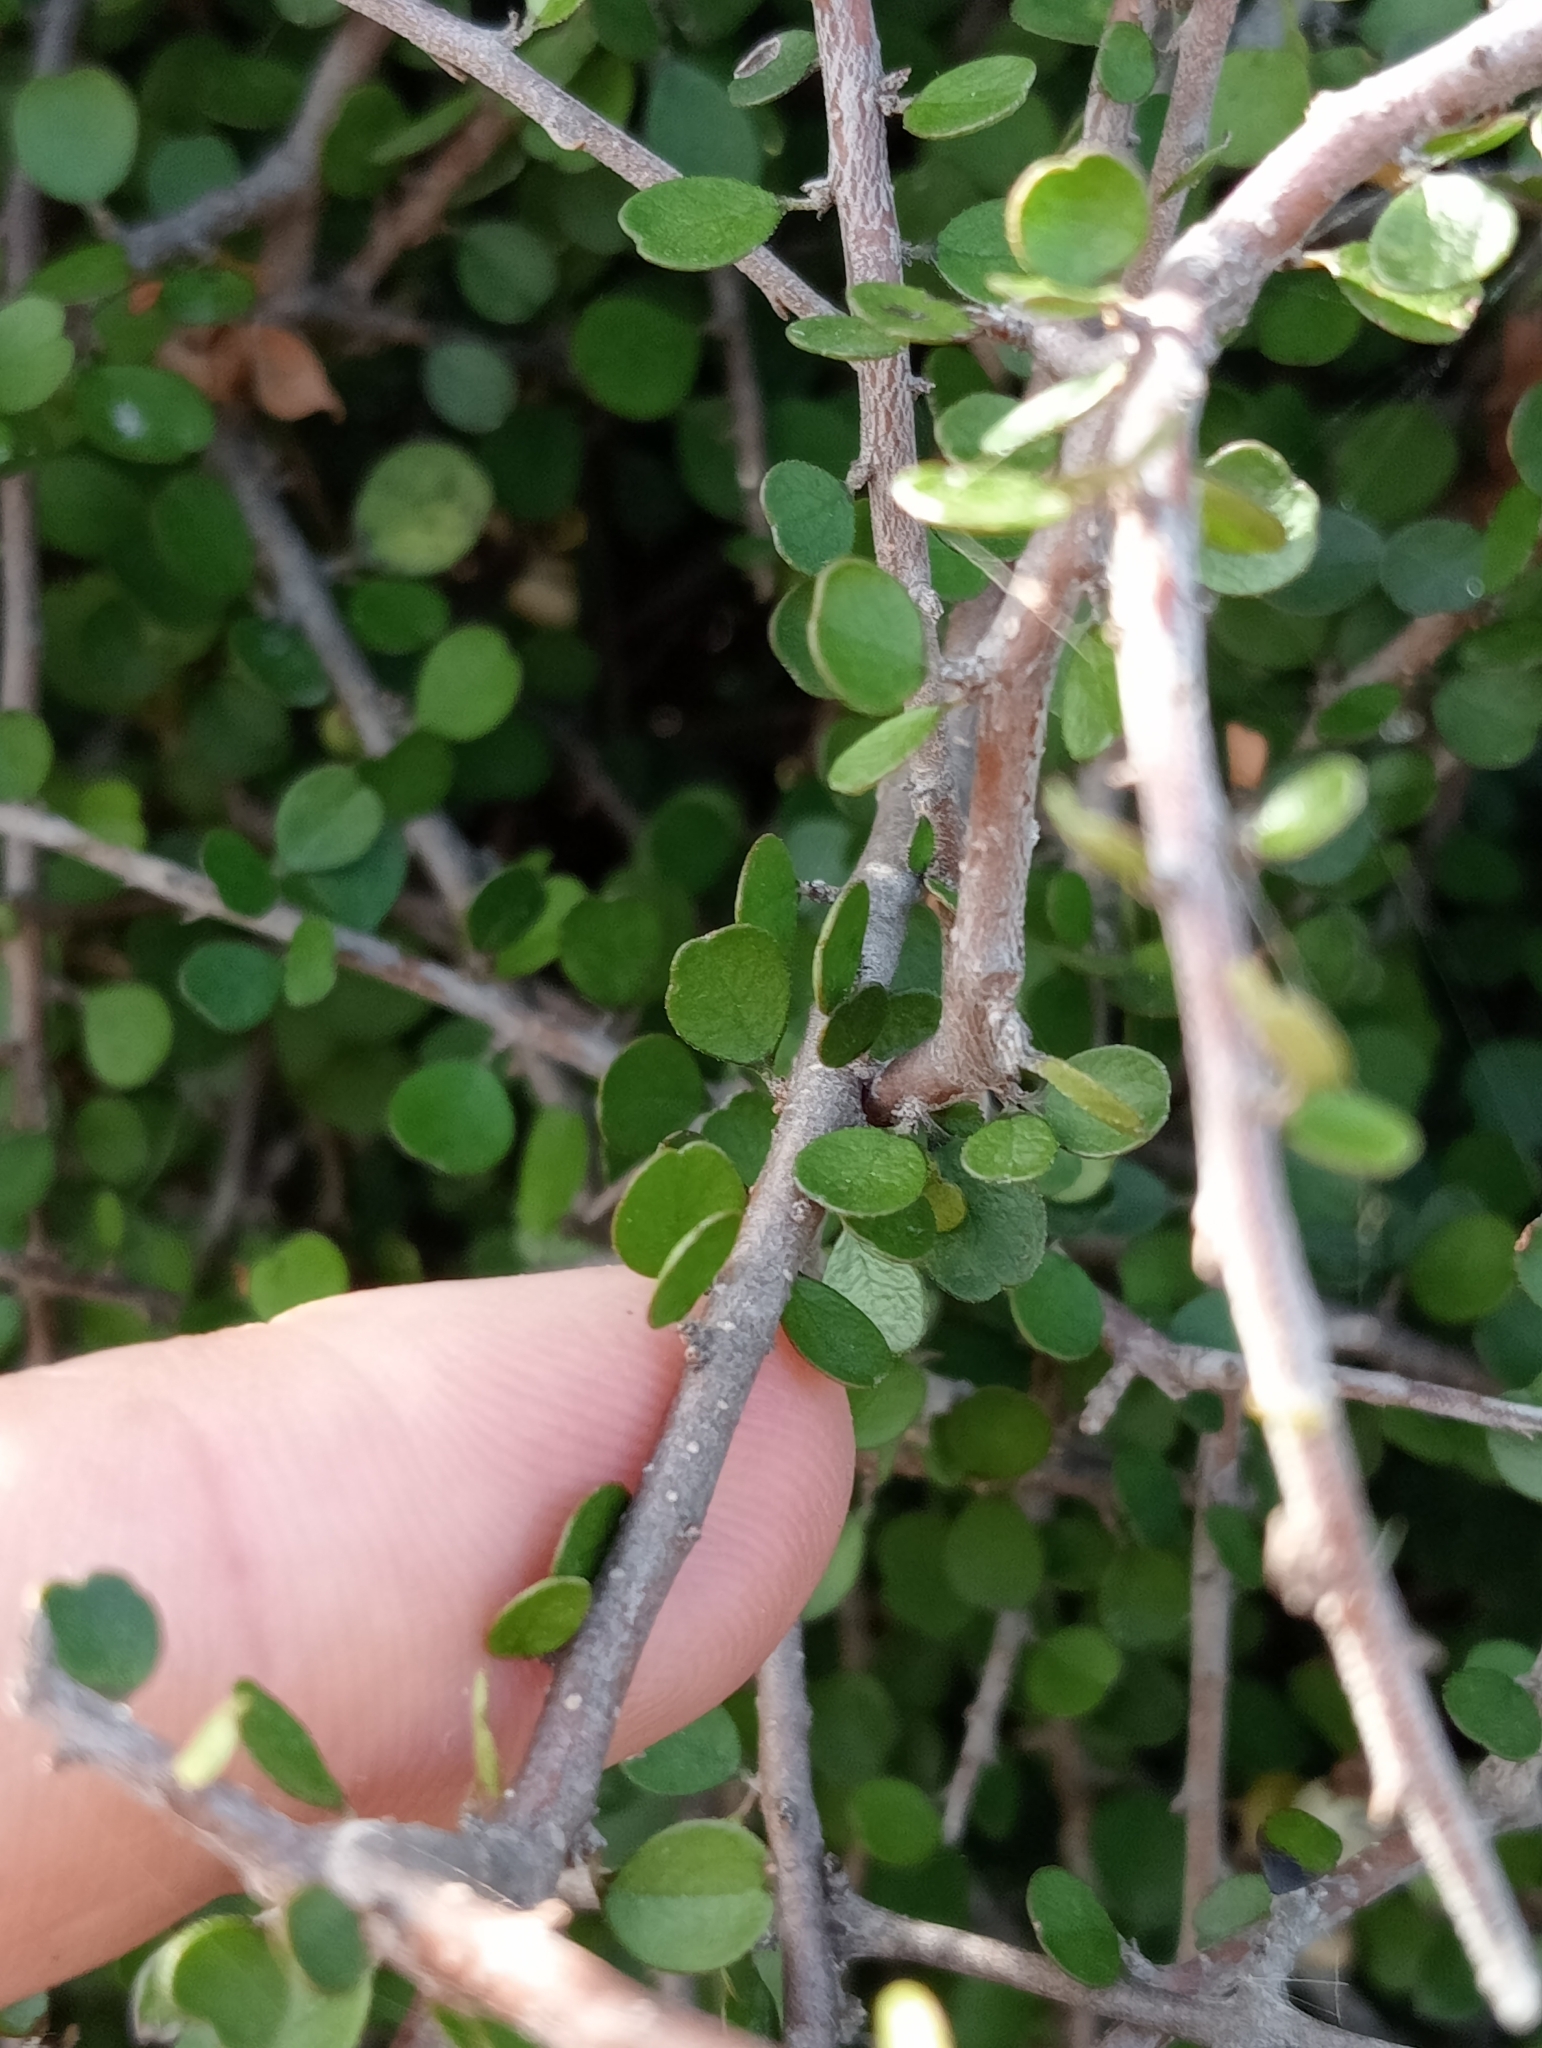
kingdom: Plantae
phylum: Tracheophyta
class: Magnoliopsida
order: Ericales
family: Primulaceae
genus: Myrsine
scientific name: Myrsine divaricata
